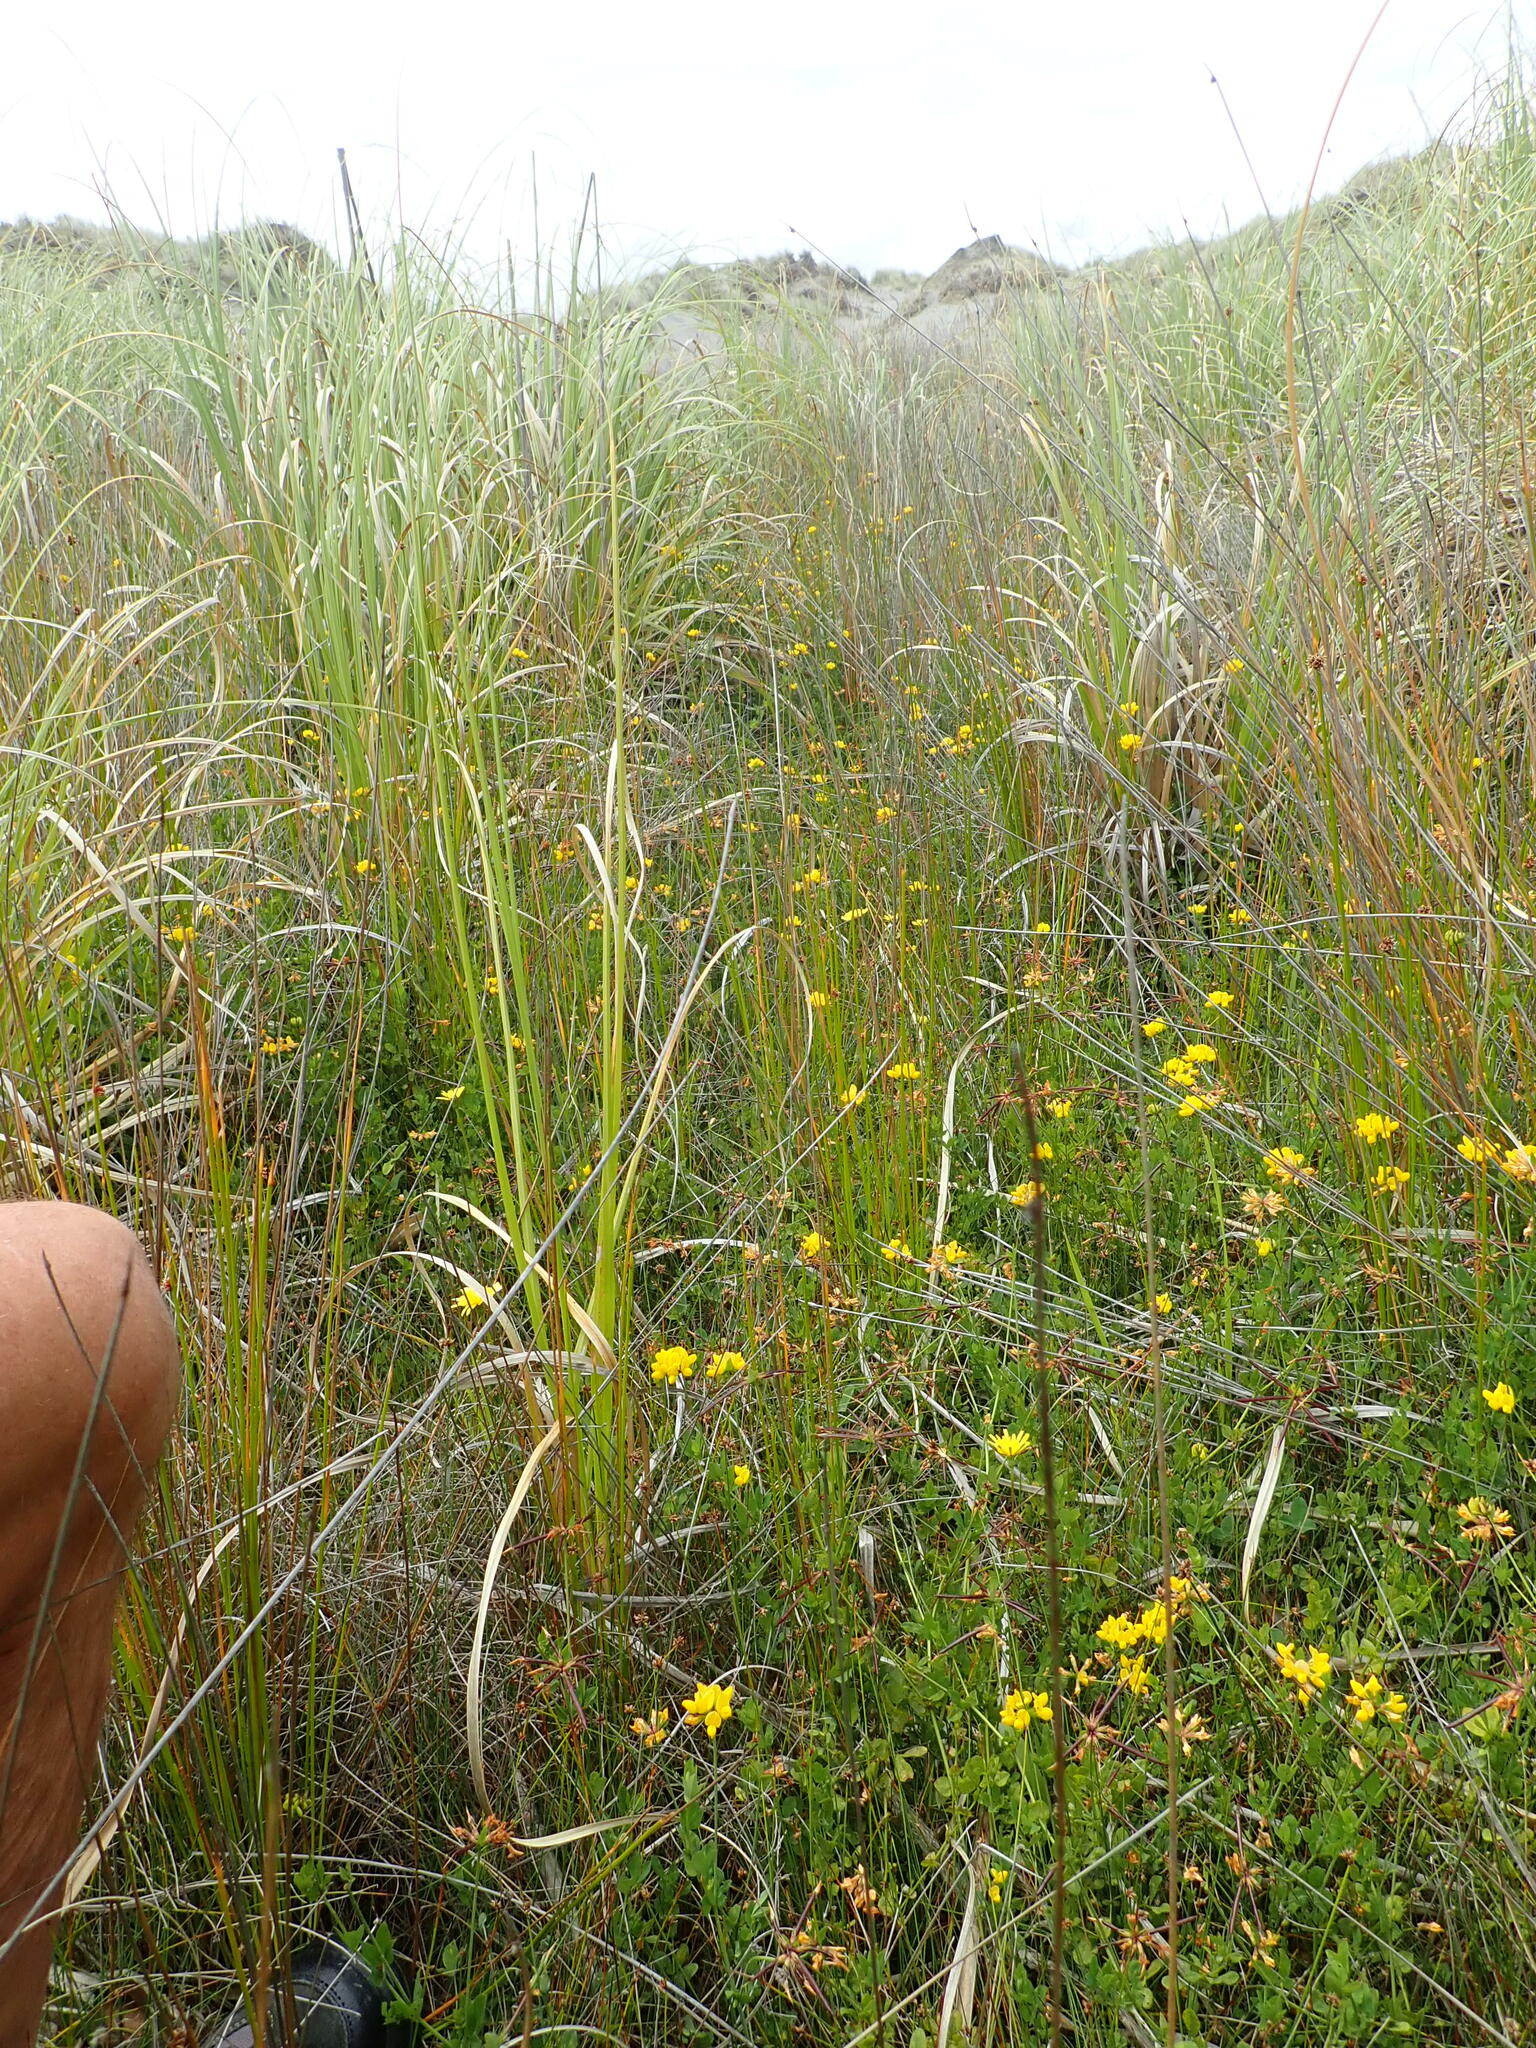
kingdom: Plantae
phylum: Tracheophyta
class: Magnoliopsida
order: Fabales
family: Fabaceae
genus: Lotus
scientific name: Lotus pedunculatus
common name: Greater birdsfoot-trefoil
